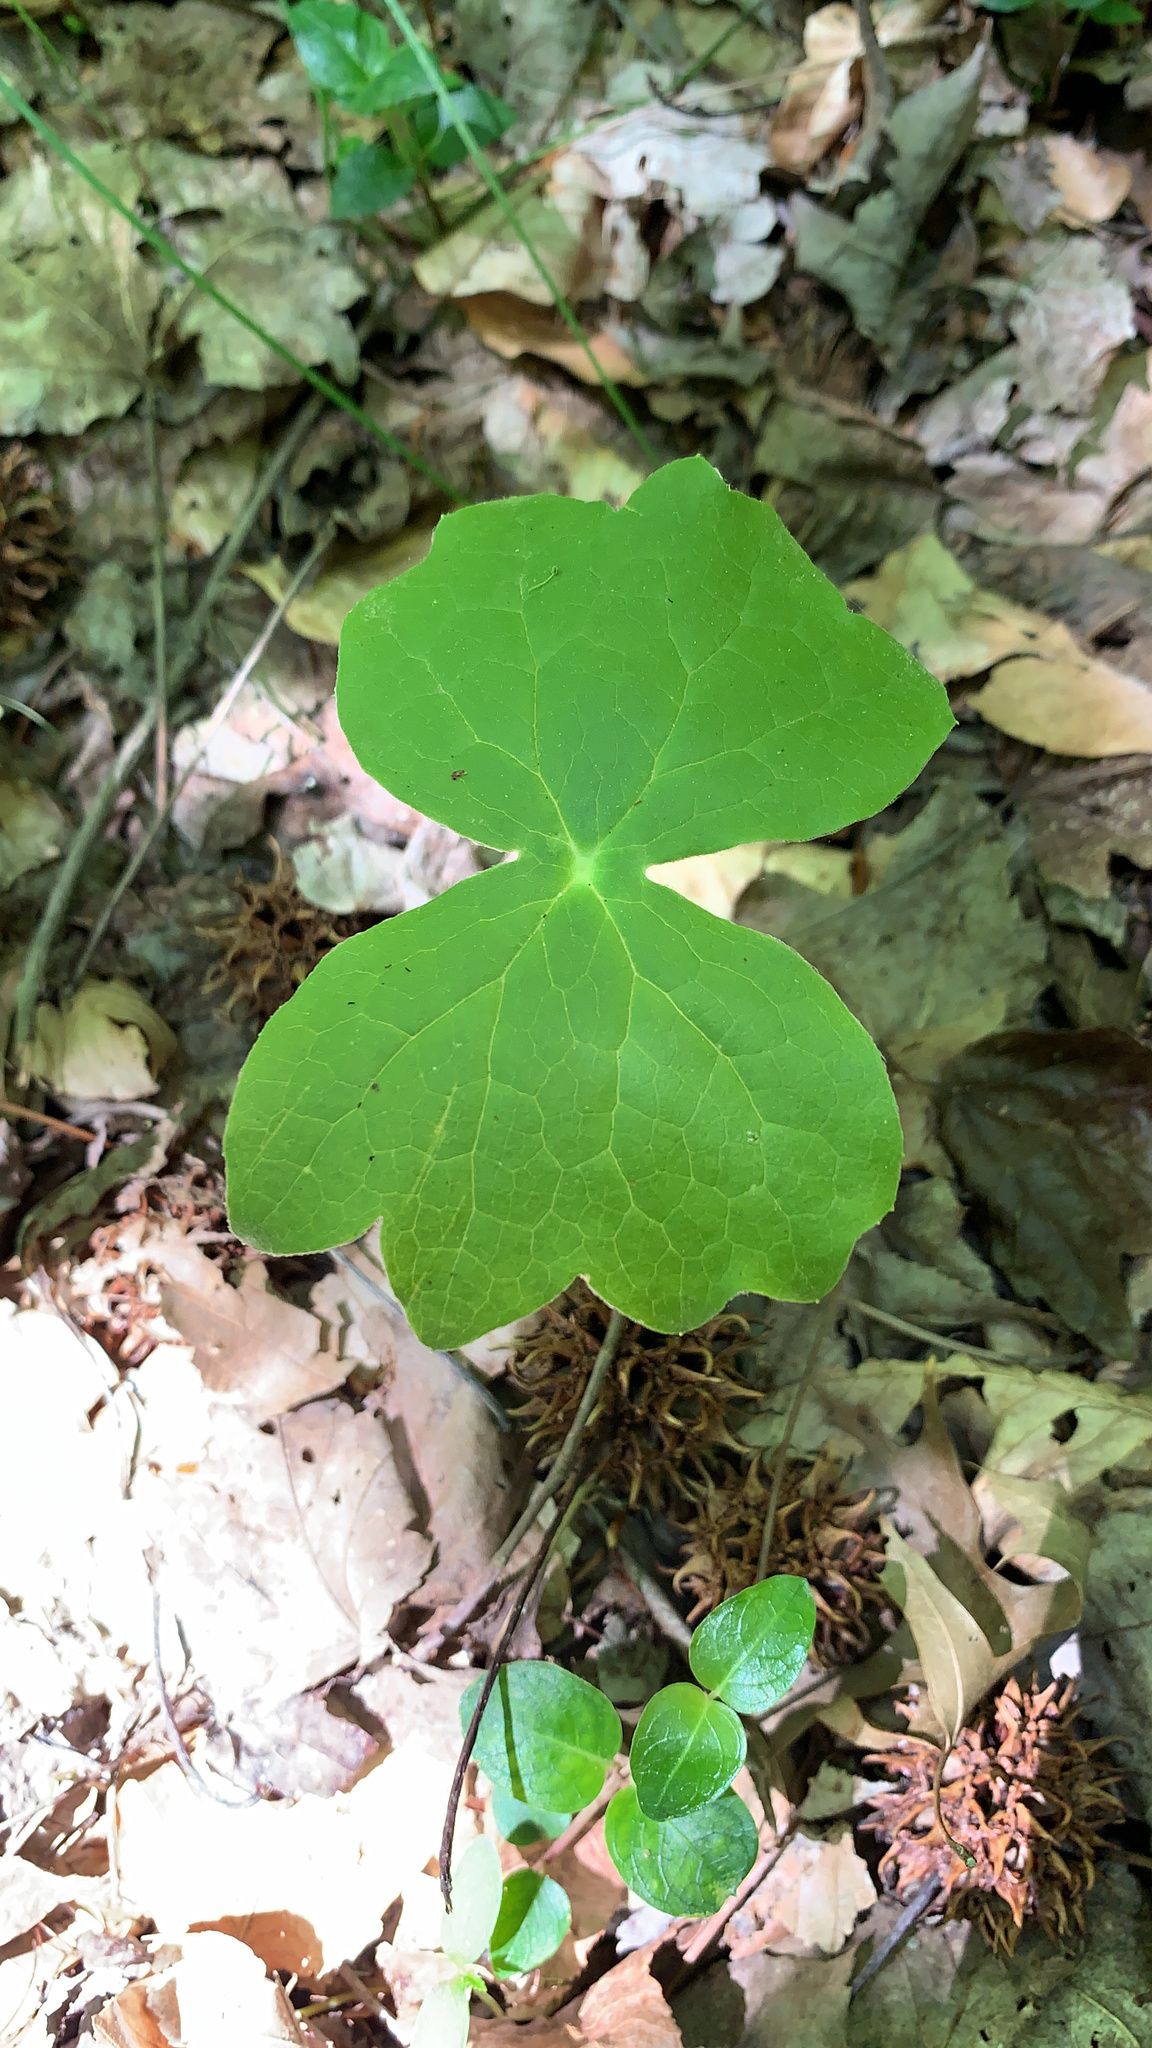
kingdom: Plantae
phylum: Tracheophyta
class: Magnoliopsida
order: Ranunculales
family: Berberidaceae
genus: Podophyllum
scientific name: Podophyllum peltatum
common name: Wild mandrake
